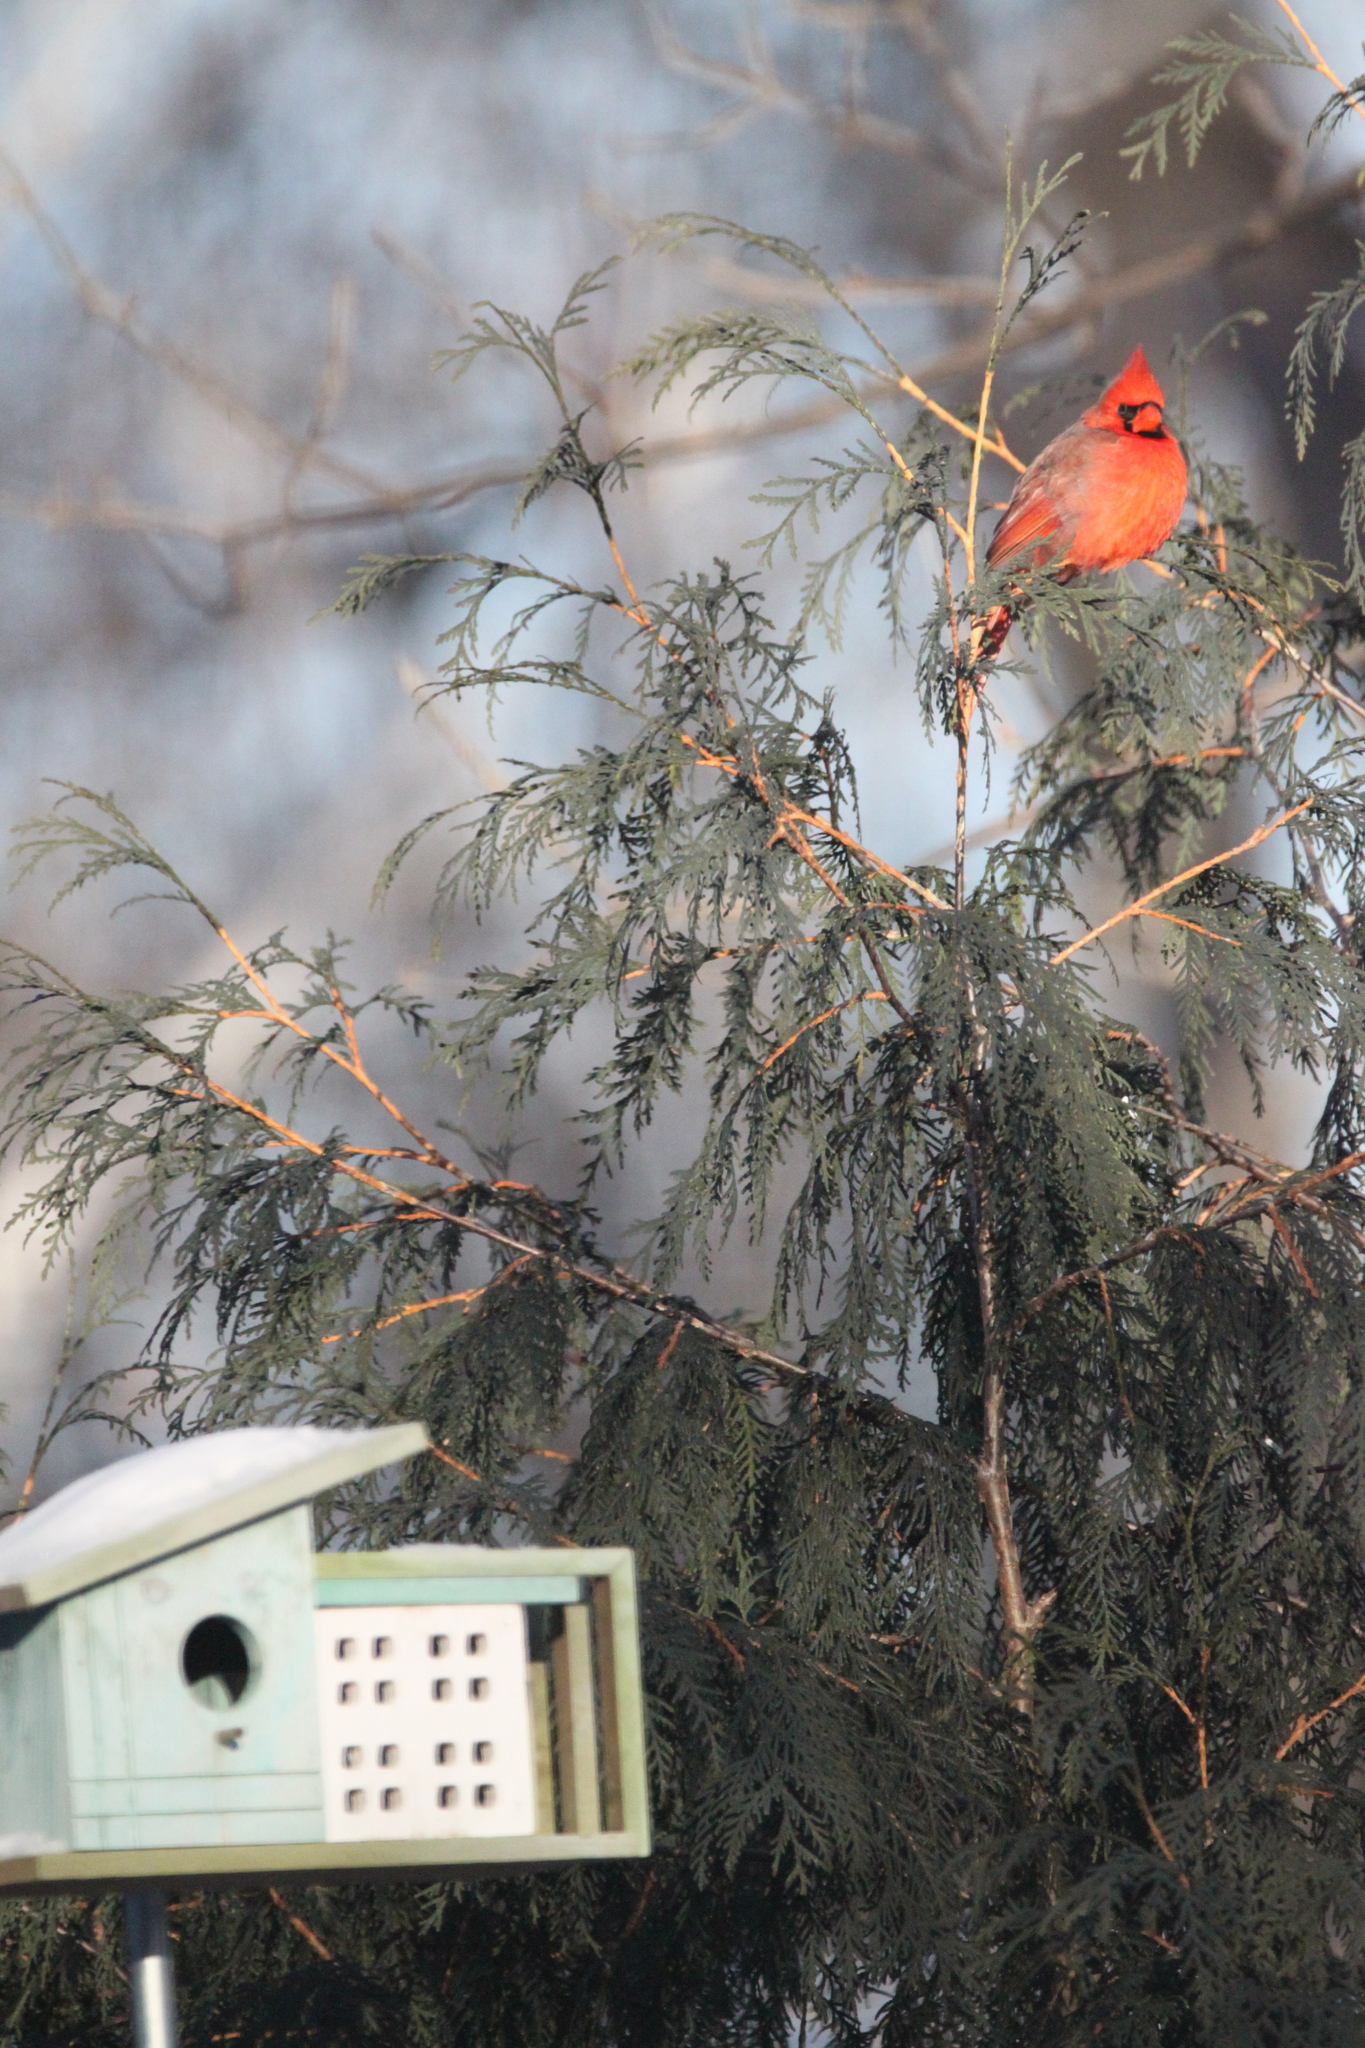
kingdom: Animalia
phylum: Chordata
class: Aves
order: Passeriformes
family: Cardinalidae
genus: Cardinalis
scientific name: Cardinalis cardinalis
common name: Northern cardinal
